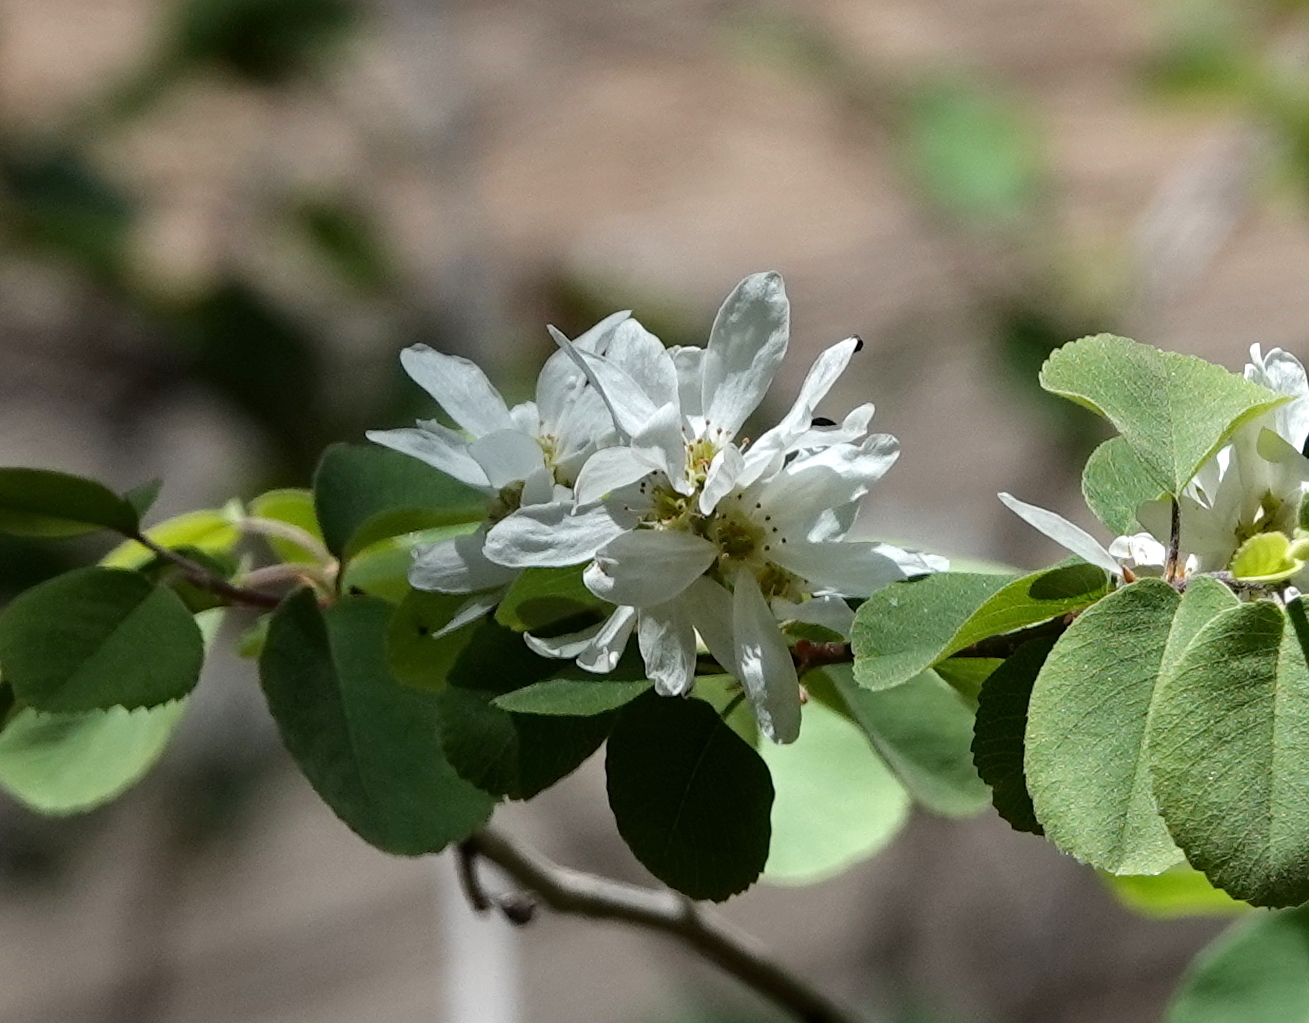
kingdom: Plantae
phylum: Tracheophyta
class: Magnoliopsida
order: Rosales
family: Rosaceae
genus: Amelanchier
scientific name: Amelanchier utahensis
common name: Utah serviceberry
